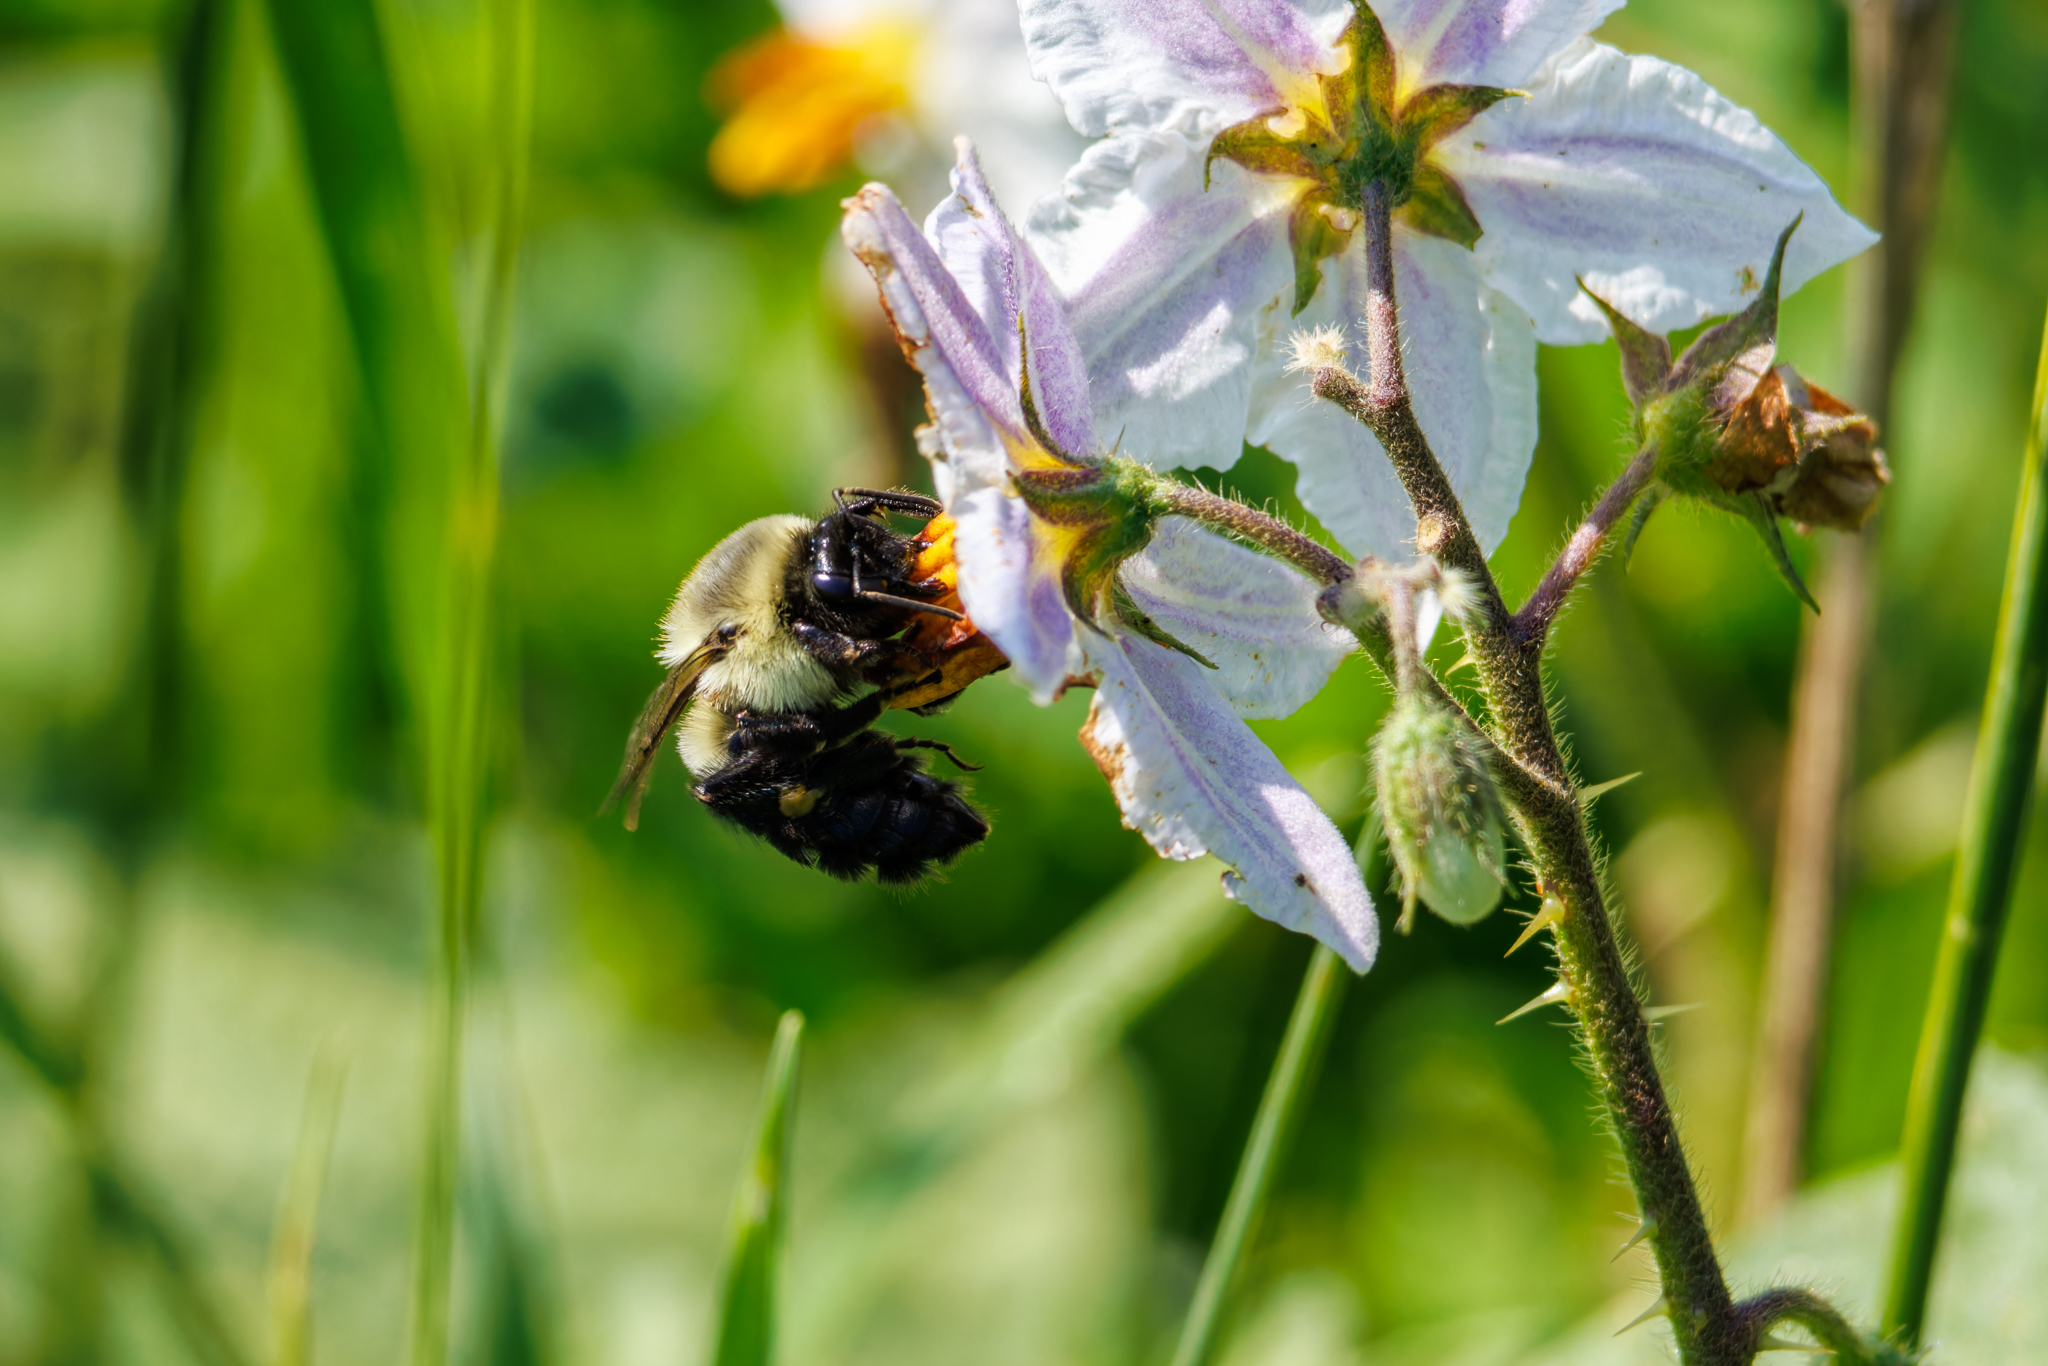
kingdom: Animalia
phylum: Arthropoda
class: Insecta
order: Hymenoptera
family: Apidae
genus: Bombus
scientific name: Bombus impatiens
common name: Common eastern bumble bee
